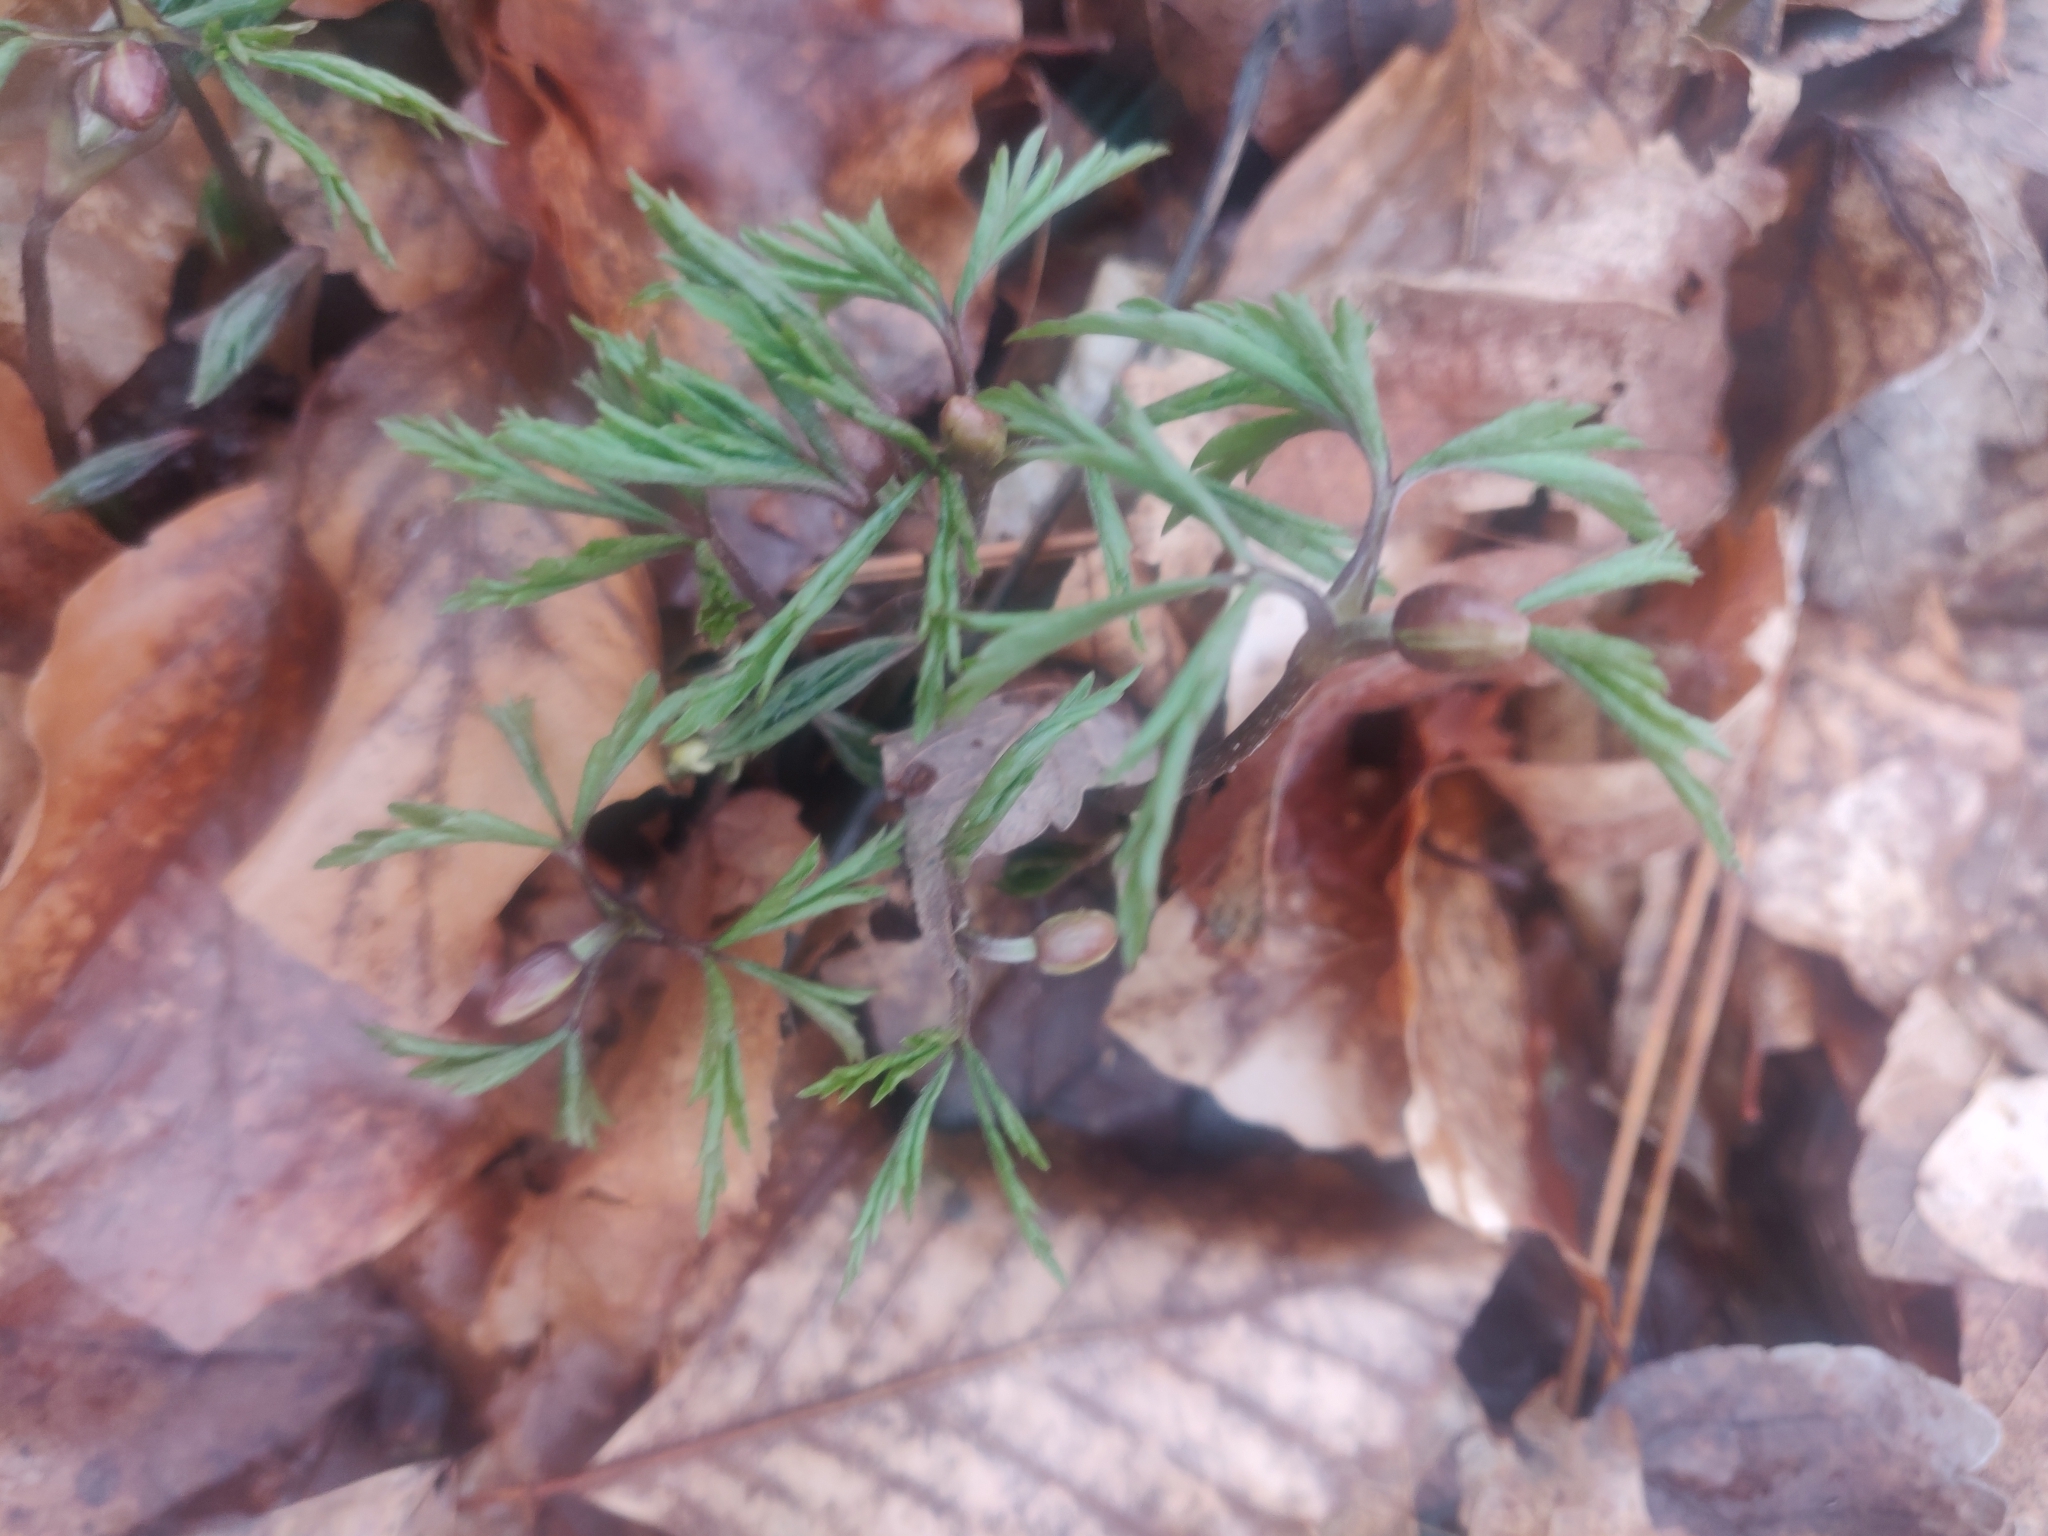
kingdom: Plantae
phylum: Tracheophyta
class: Magnoliopsida
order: Ranunculales
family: Ranunculaceae
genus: Anemone
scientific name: Anemone nemorosa
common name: Wood anemone
